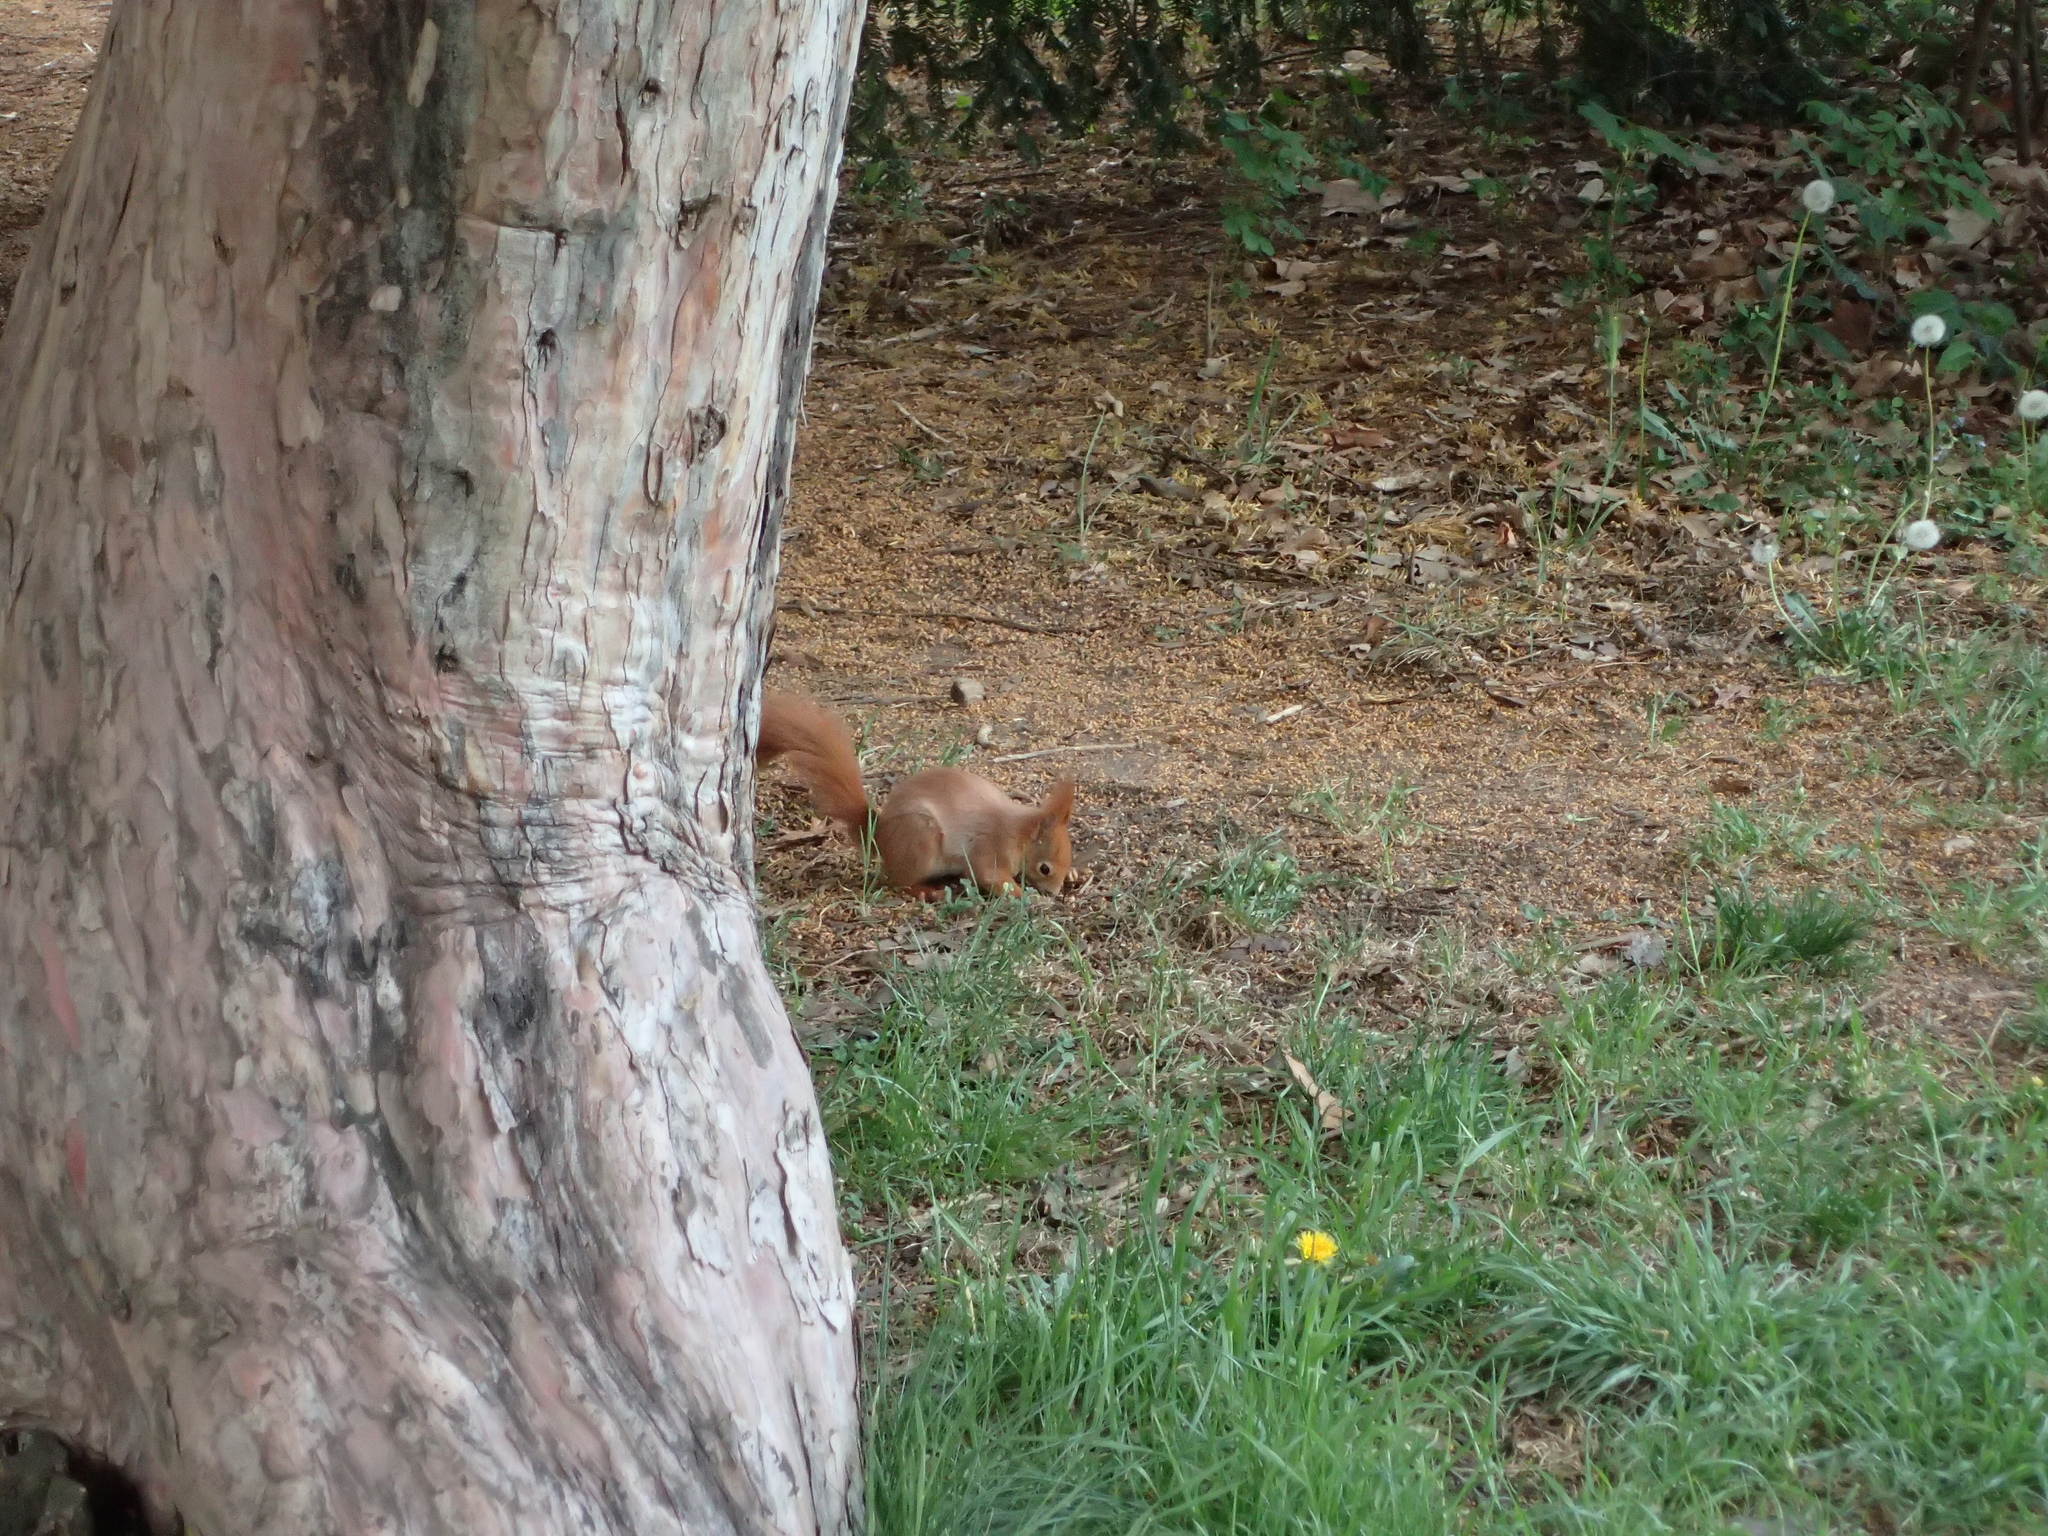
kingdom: Animalia
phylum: Chordata
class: Mammalia
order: Rodentia
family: Sciuridae
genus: Sciurus
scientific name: Sciurus vulgaris
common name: Eurasian red squirrel
